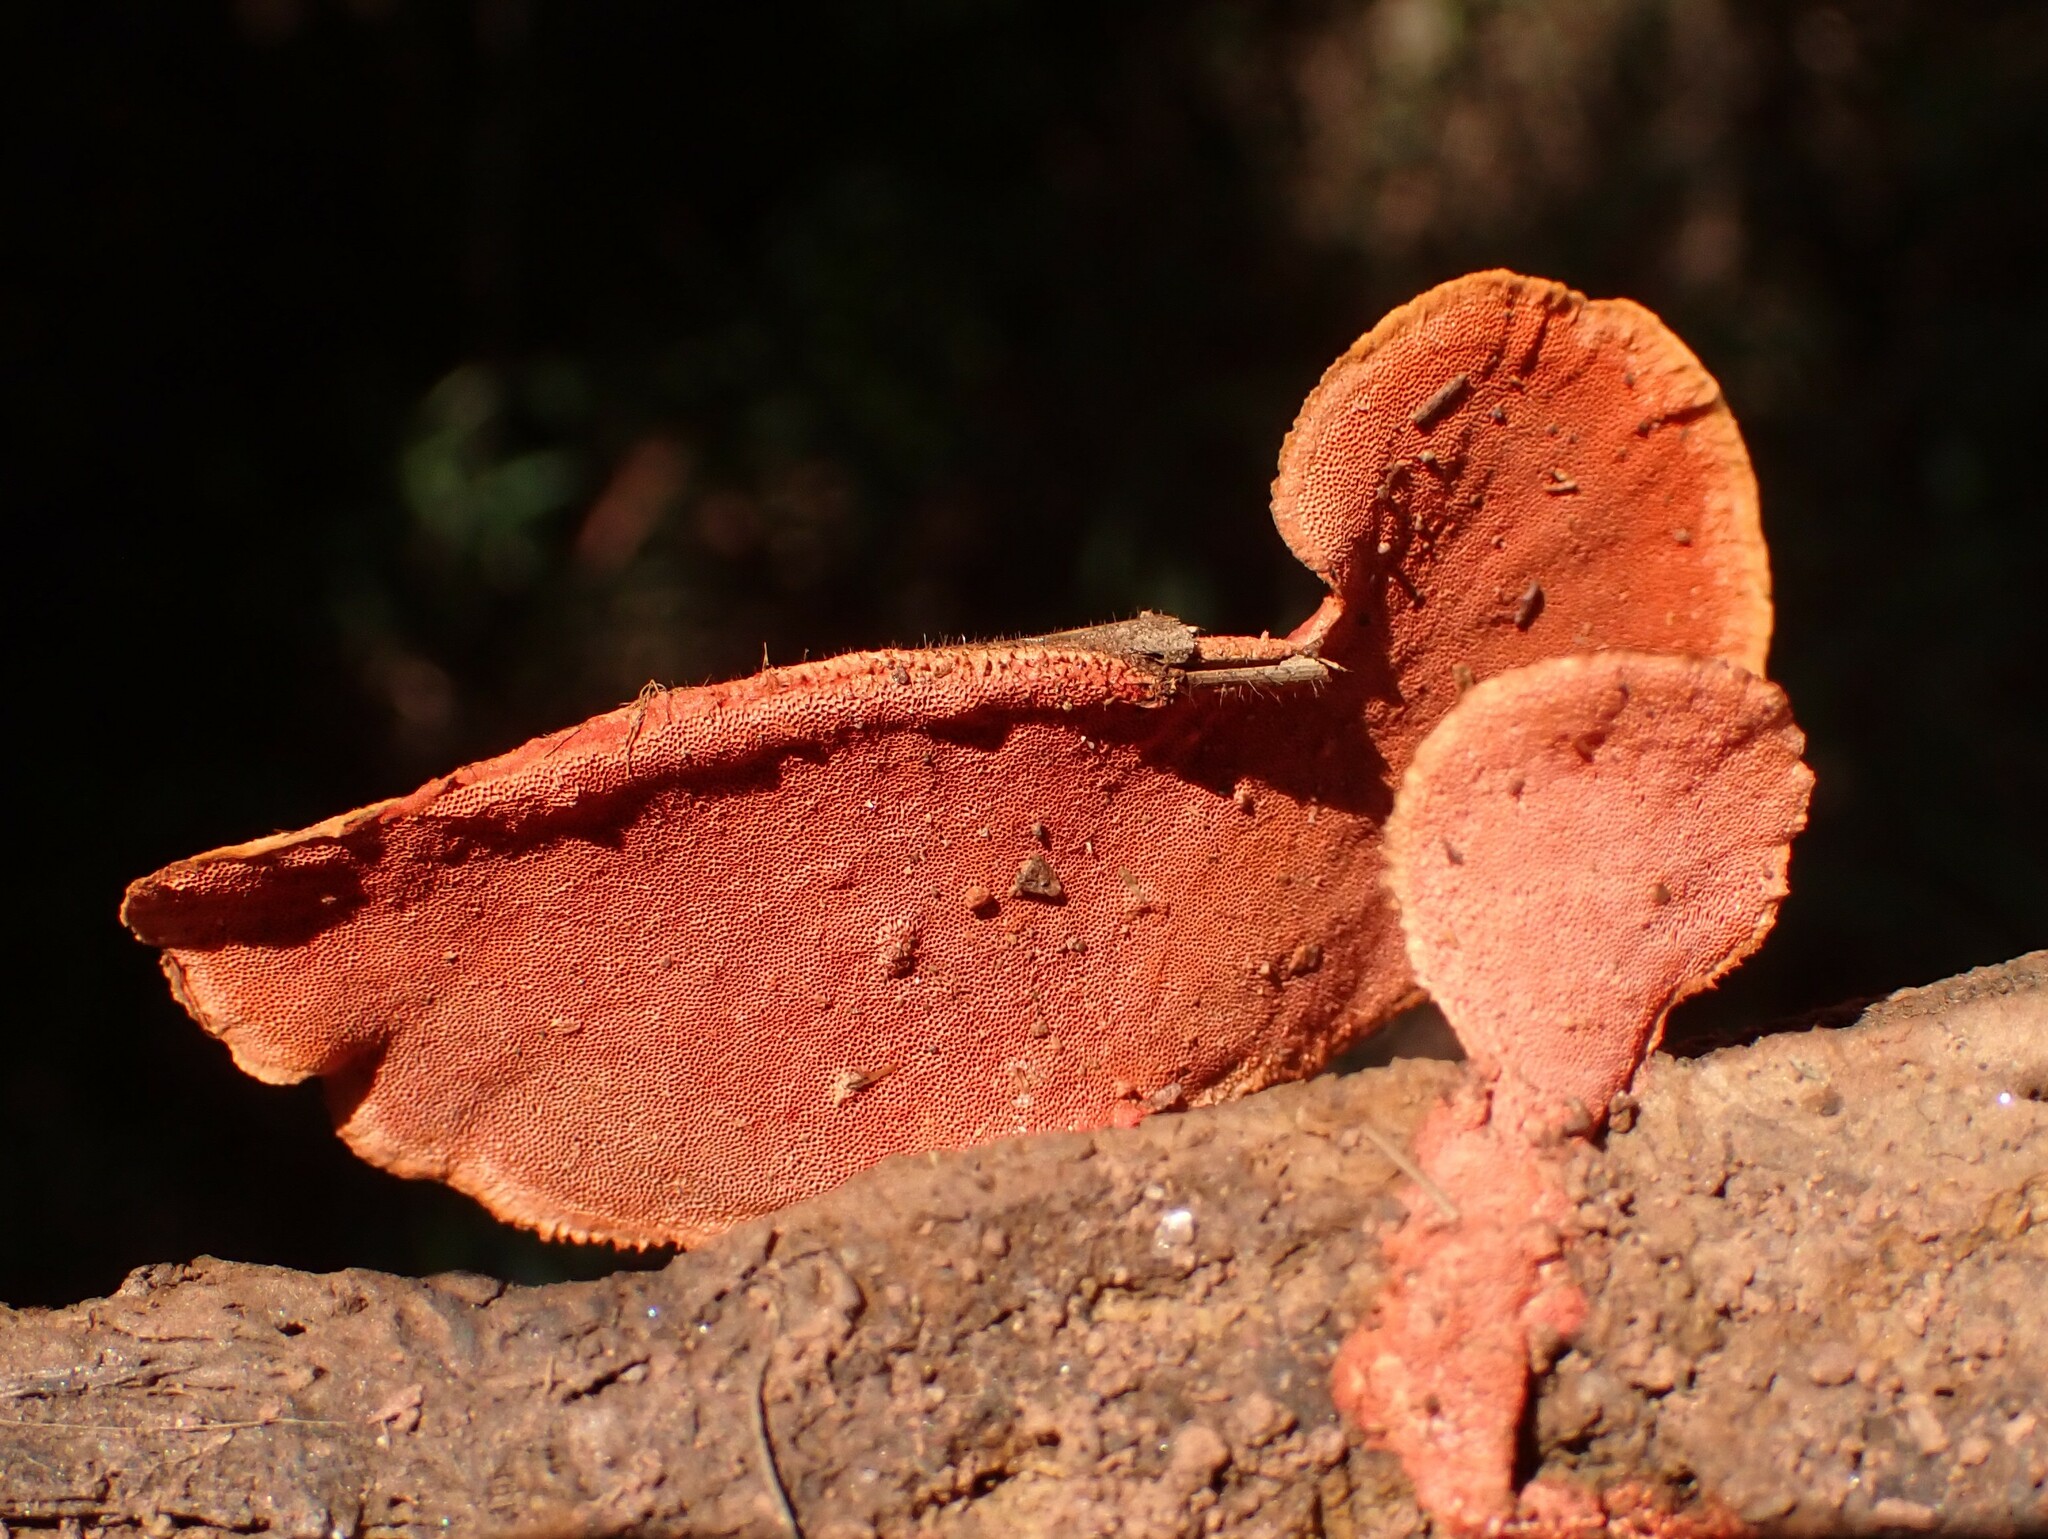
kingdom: Fungi
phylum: Basidiomycota
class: Agaricomycetes
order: Polyporales
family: Polyporaceae
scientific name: Polyporaceae
